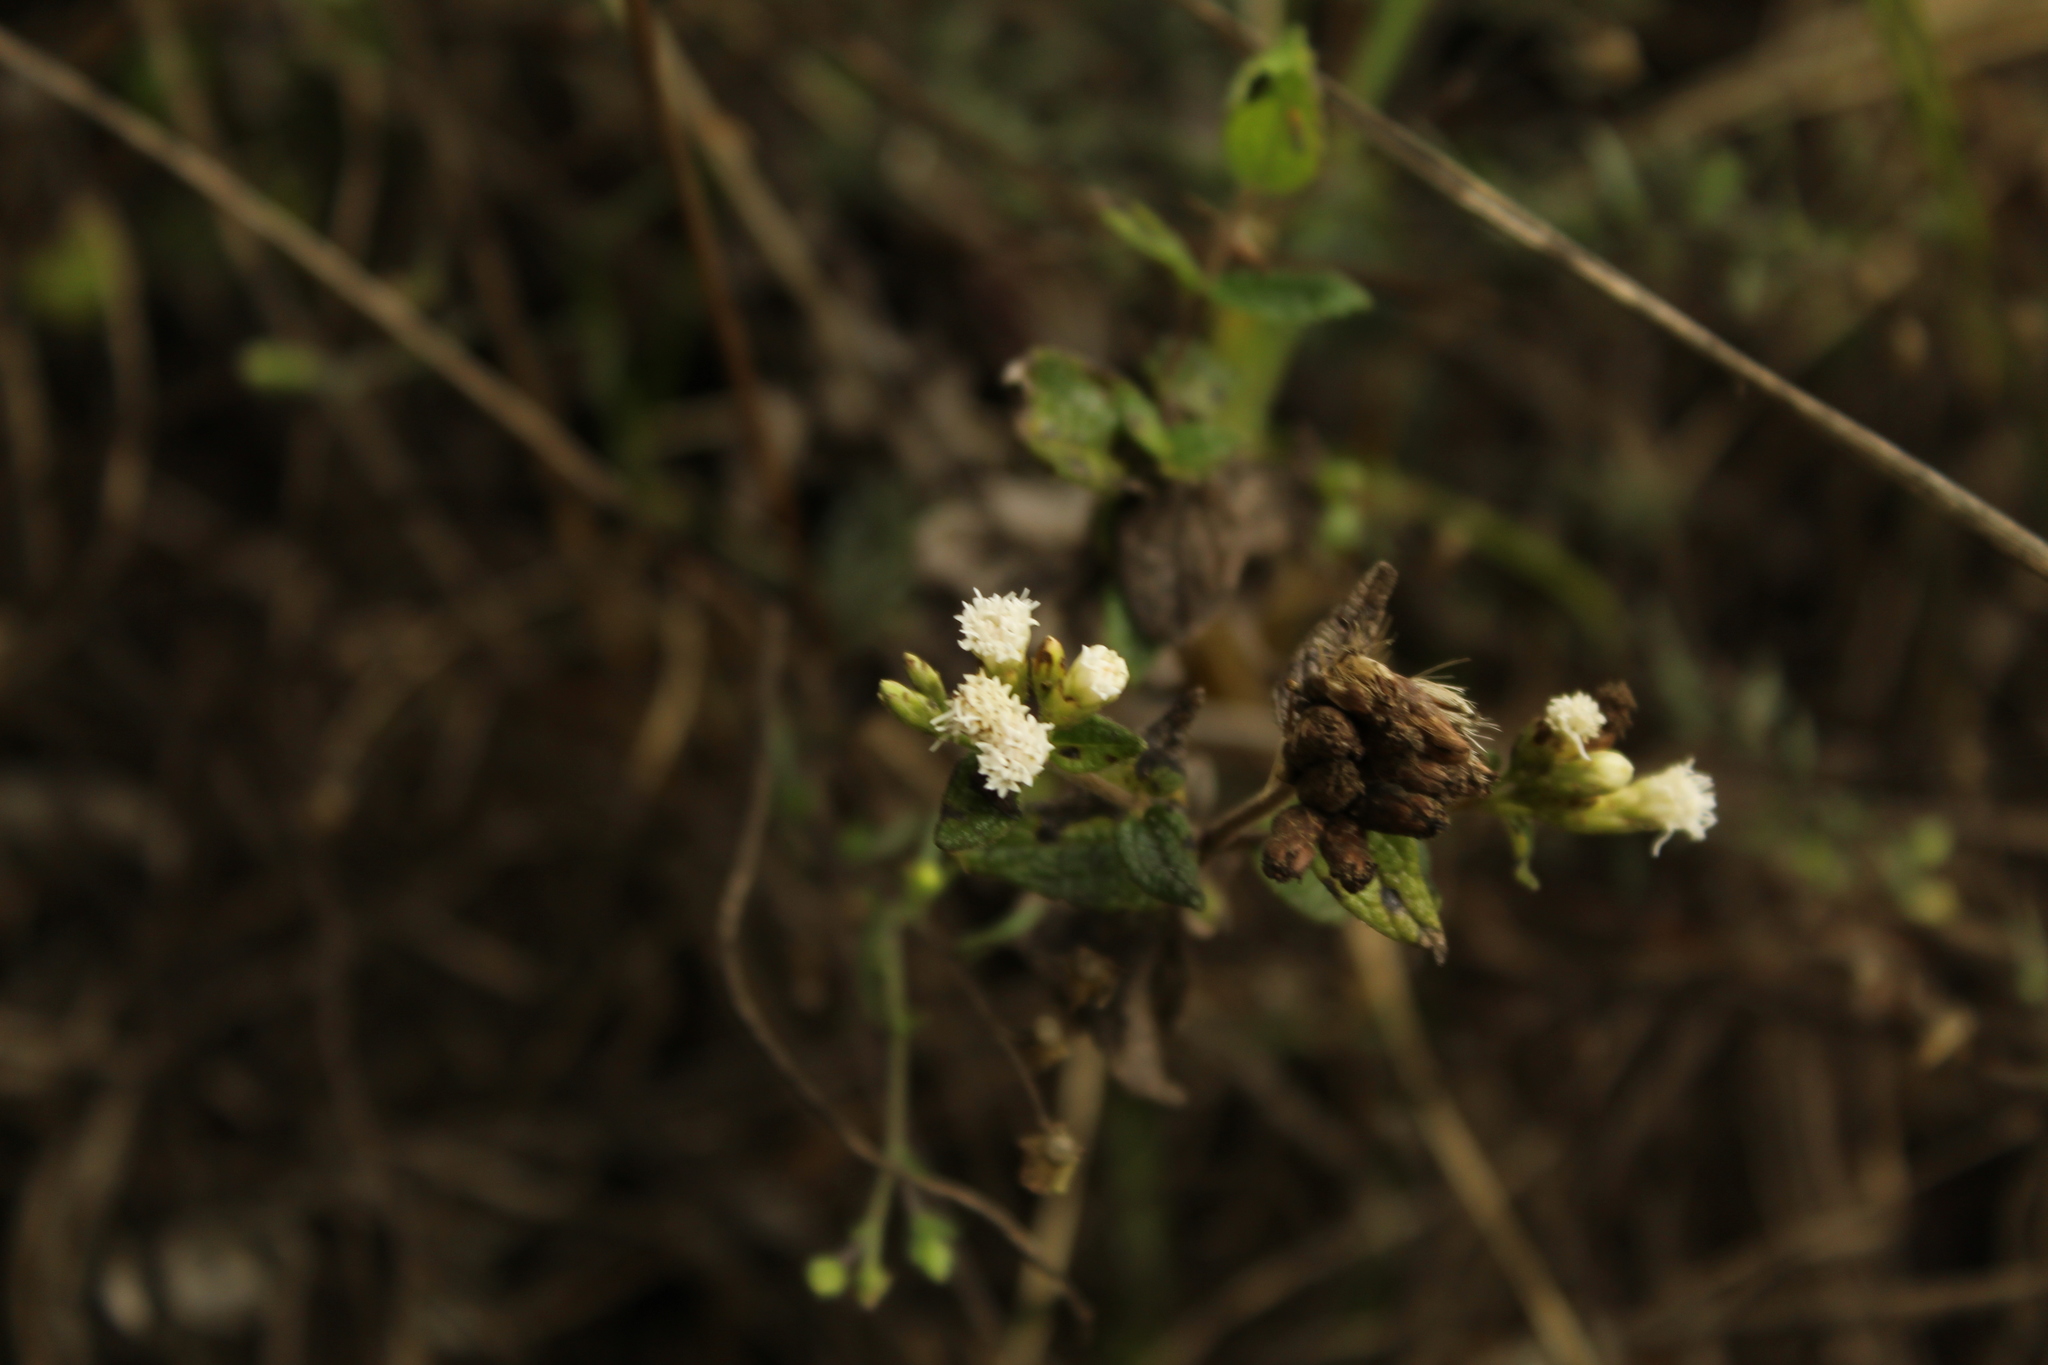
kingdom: Plantae
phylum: Tracheophyta
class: Magnoliopsida
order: Asterales
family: Asteraceae
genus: Chromolaena
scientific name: Chromolaena bullata
